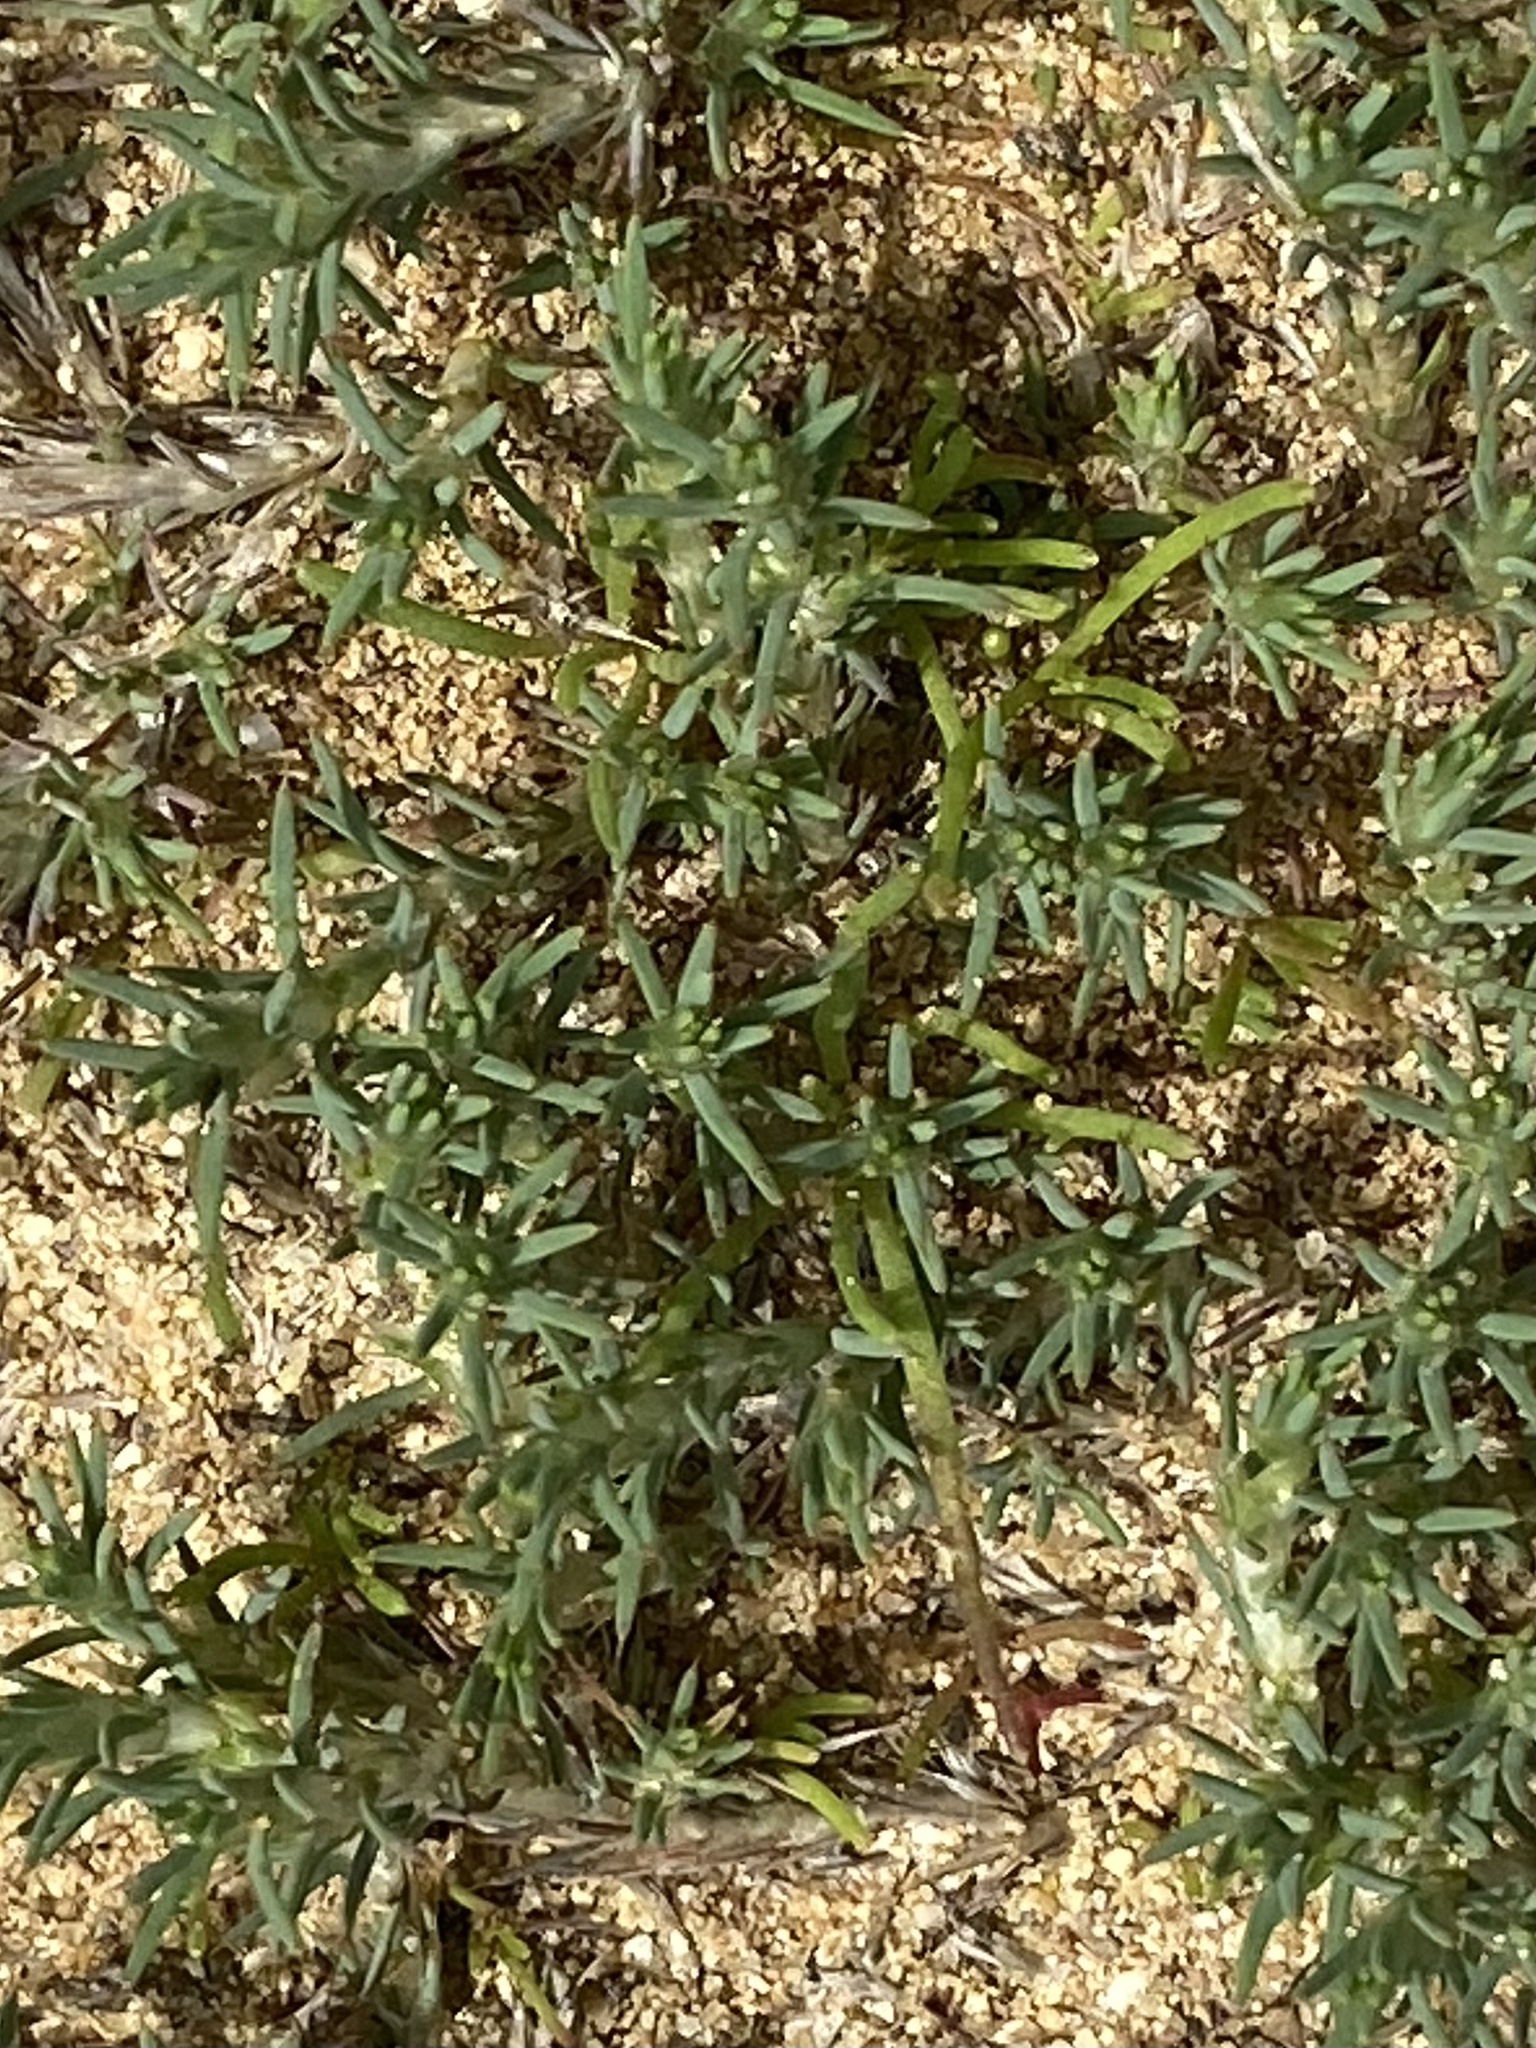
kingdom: Plantae
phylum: Tracheophyta
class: Magnoliopsida
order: Caryophyllales
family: Caryophyllaceae
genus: Cardionema
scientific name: Cardionema ramosissima
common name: Sandcarpet
